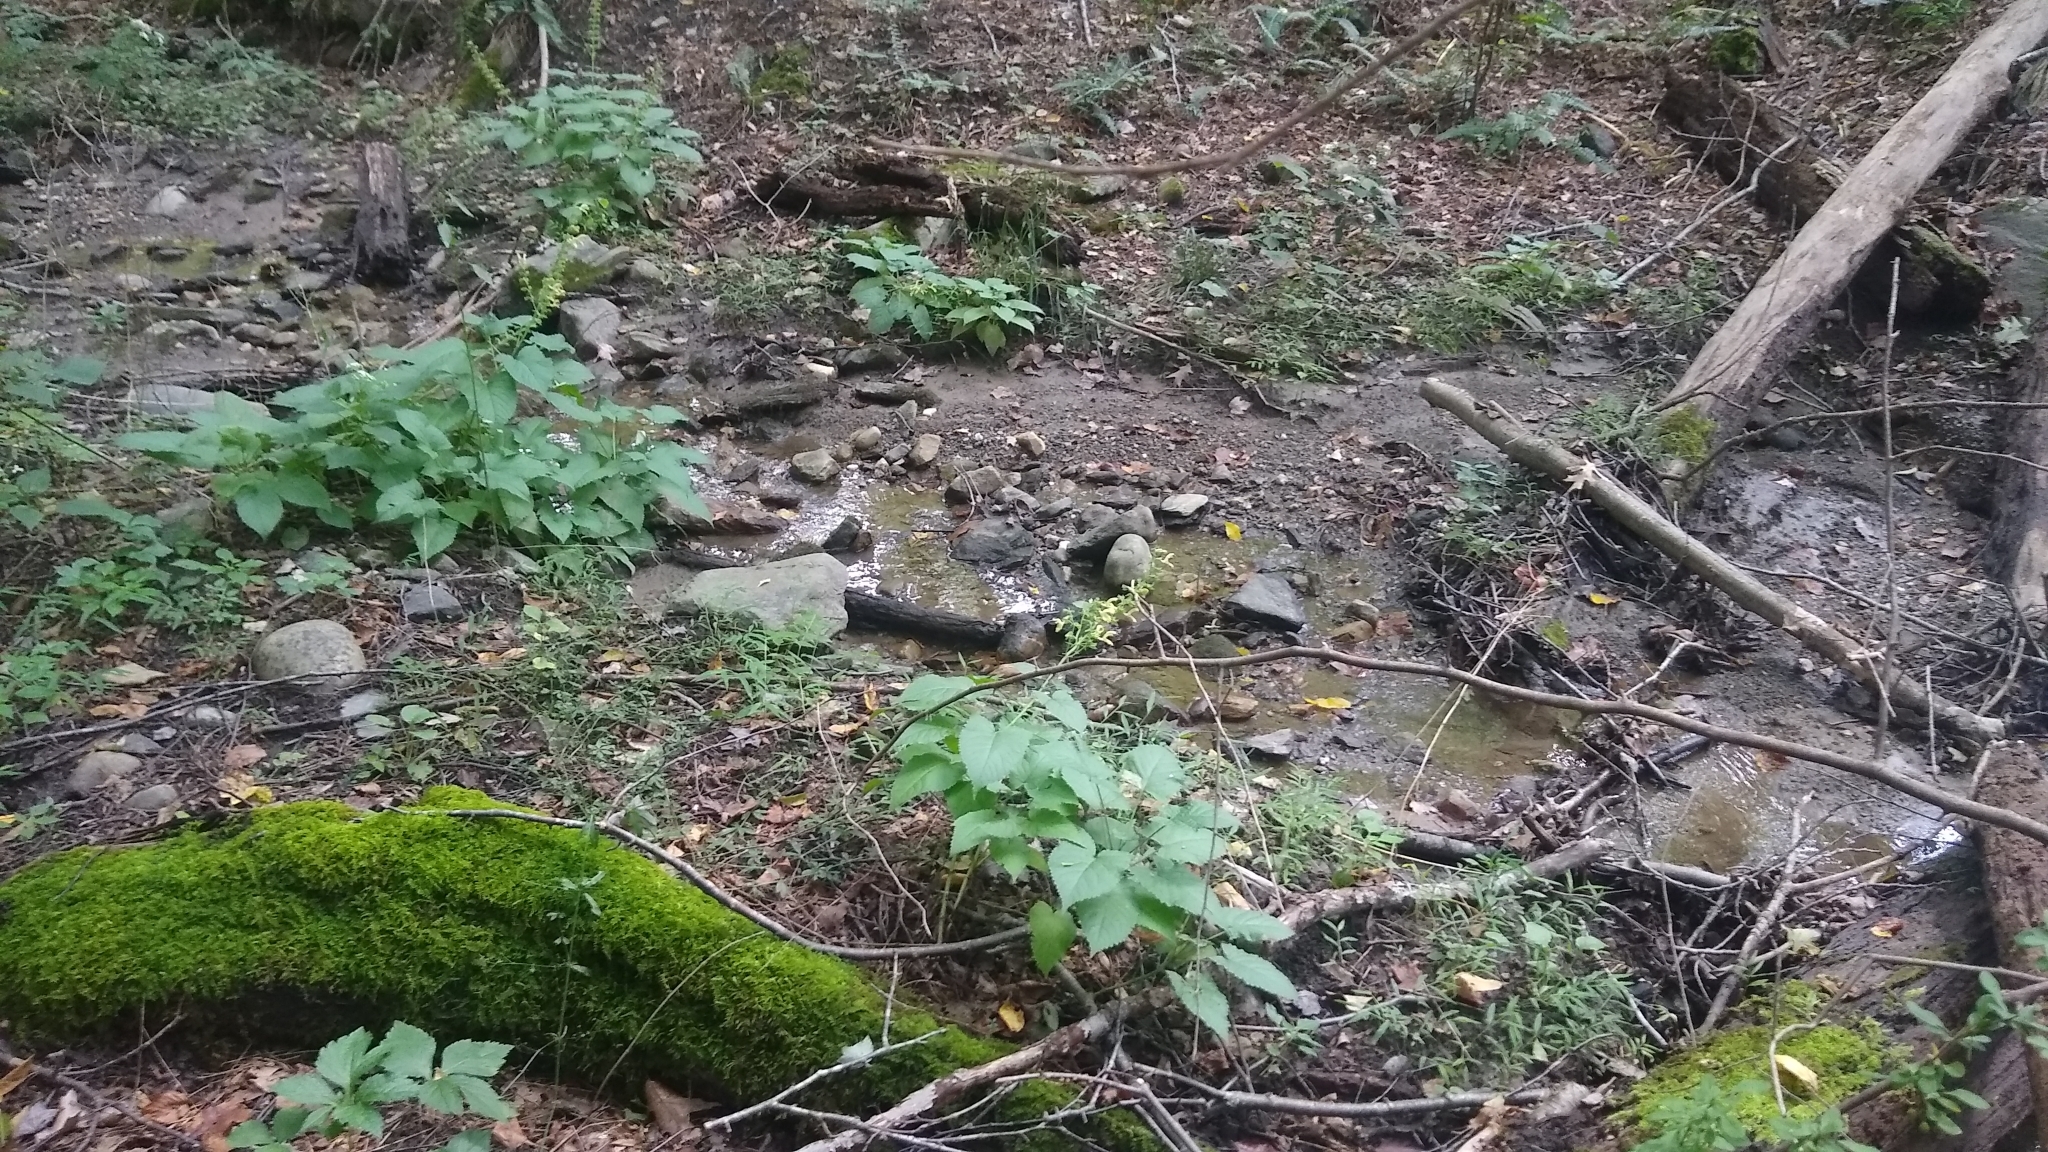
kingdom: Plantae
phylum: Tracheophyta
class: Magnoliopsida
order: Lamiales
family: Lamiaceae
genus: Salvia
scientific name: Salvia glutinosa
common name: Sticky clary
